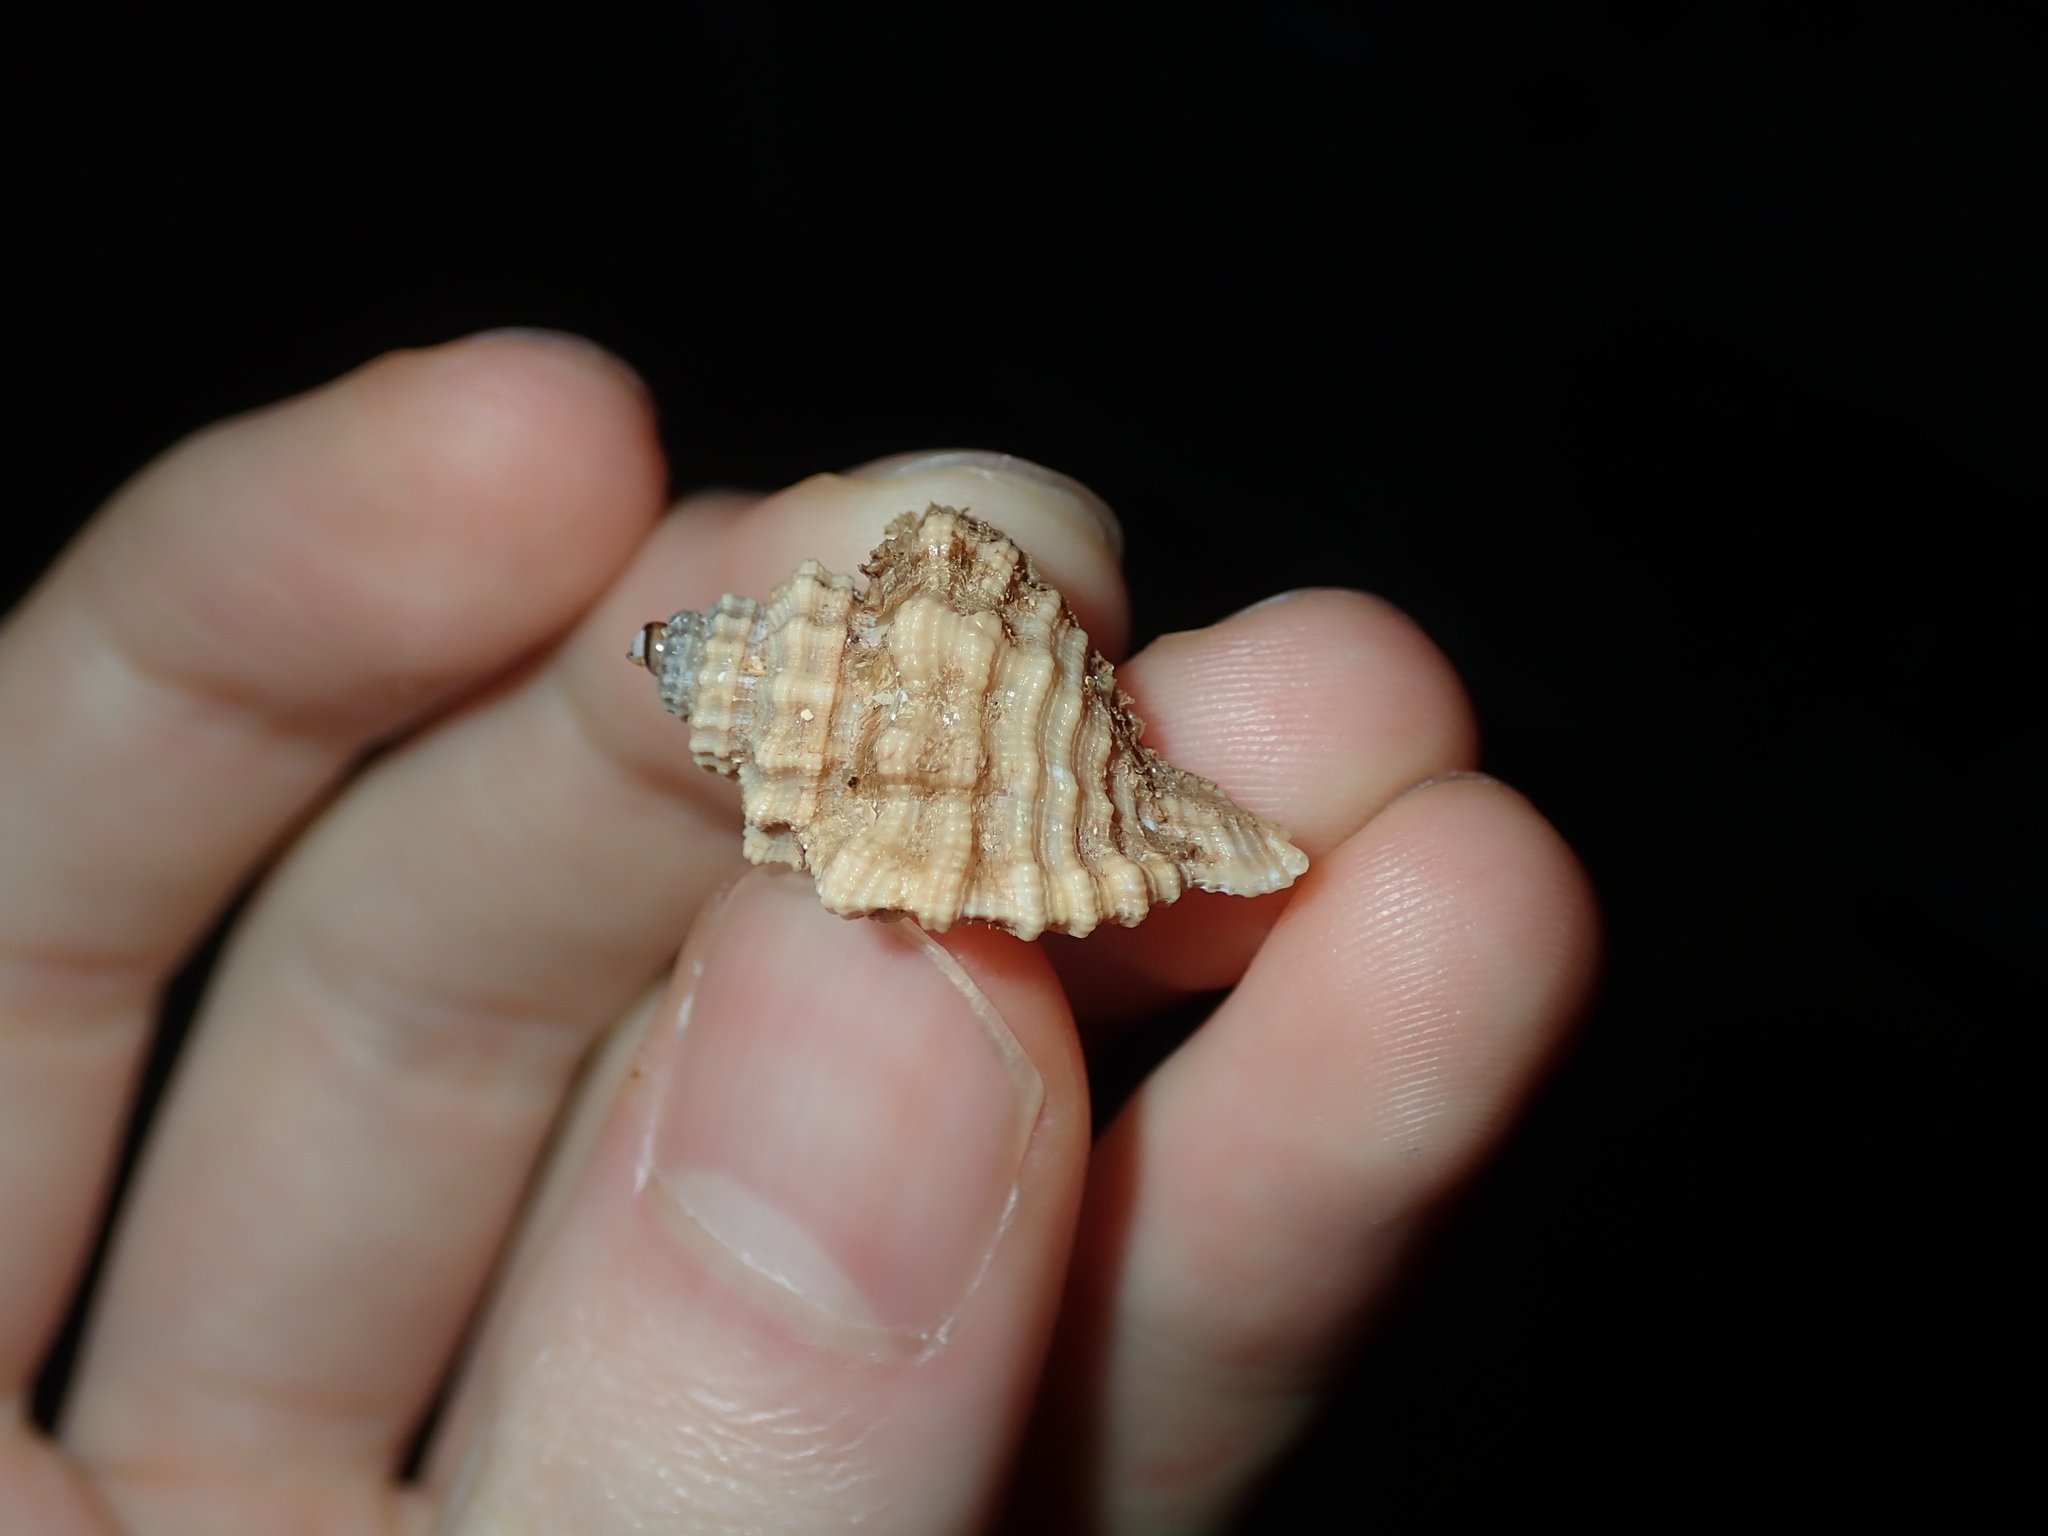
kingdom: Animalia
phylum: Mollusca
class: Gastropoda
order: Littorinimorpha
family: Cymatiidae
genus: Turritriton
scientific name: Turritriton labiosus
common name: Lip triton
